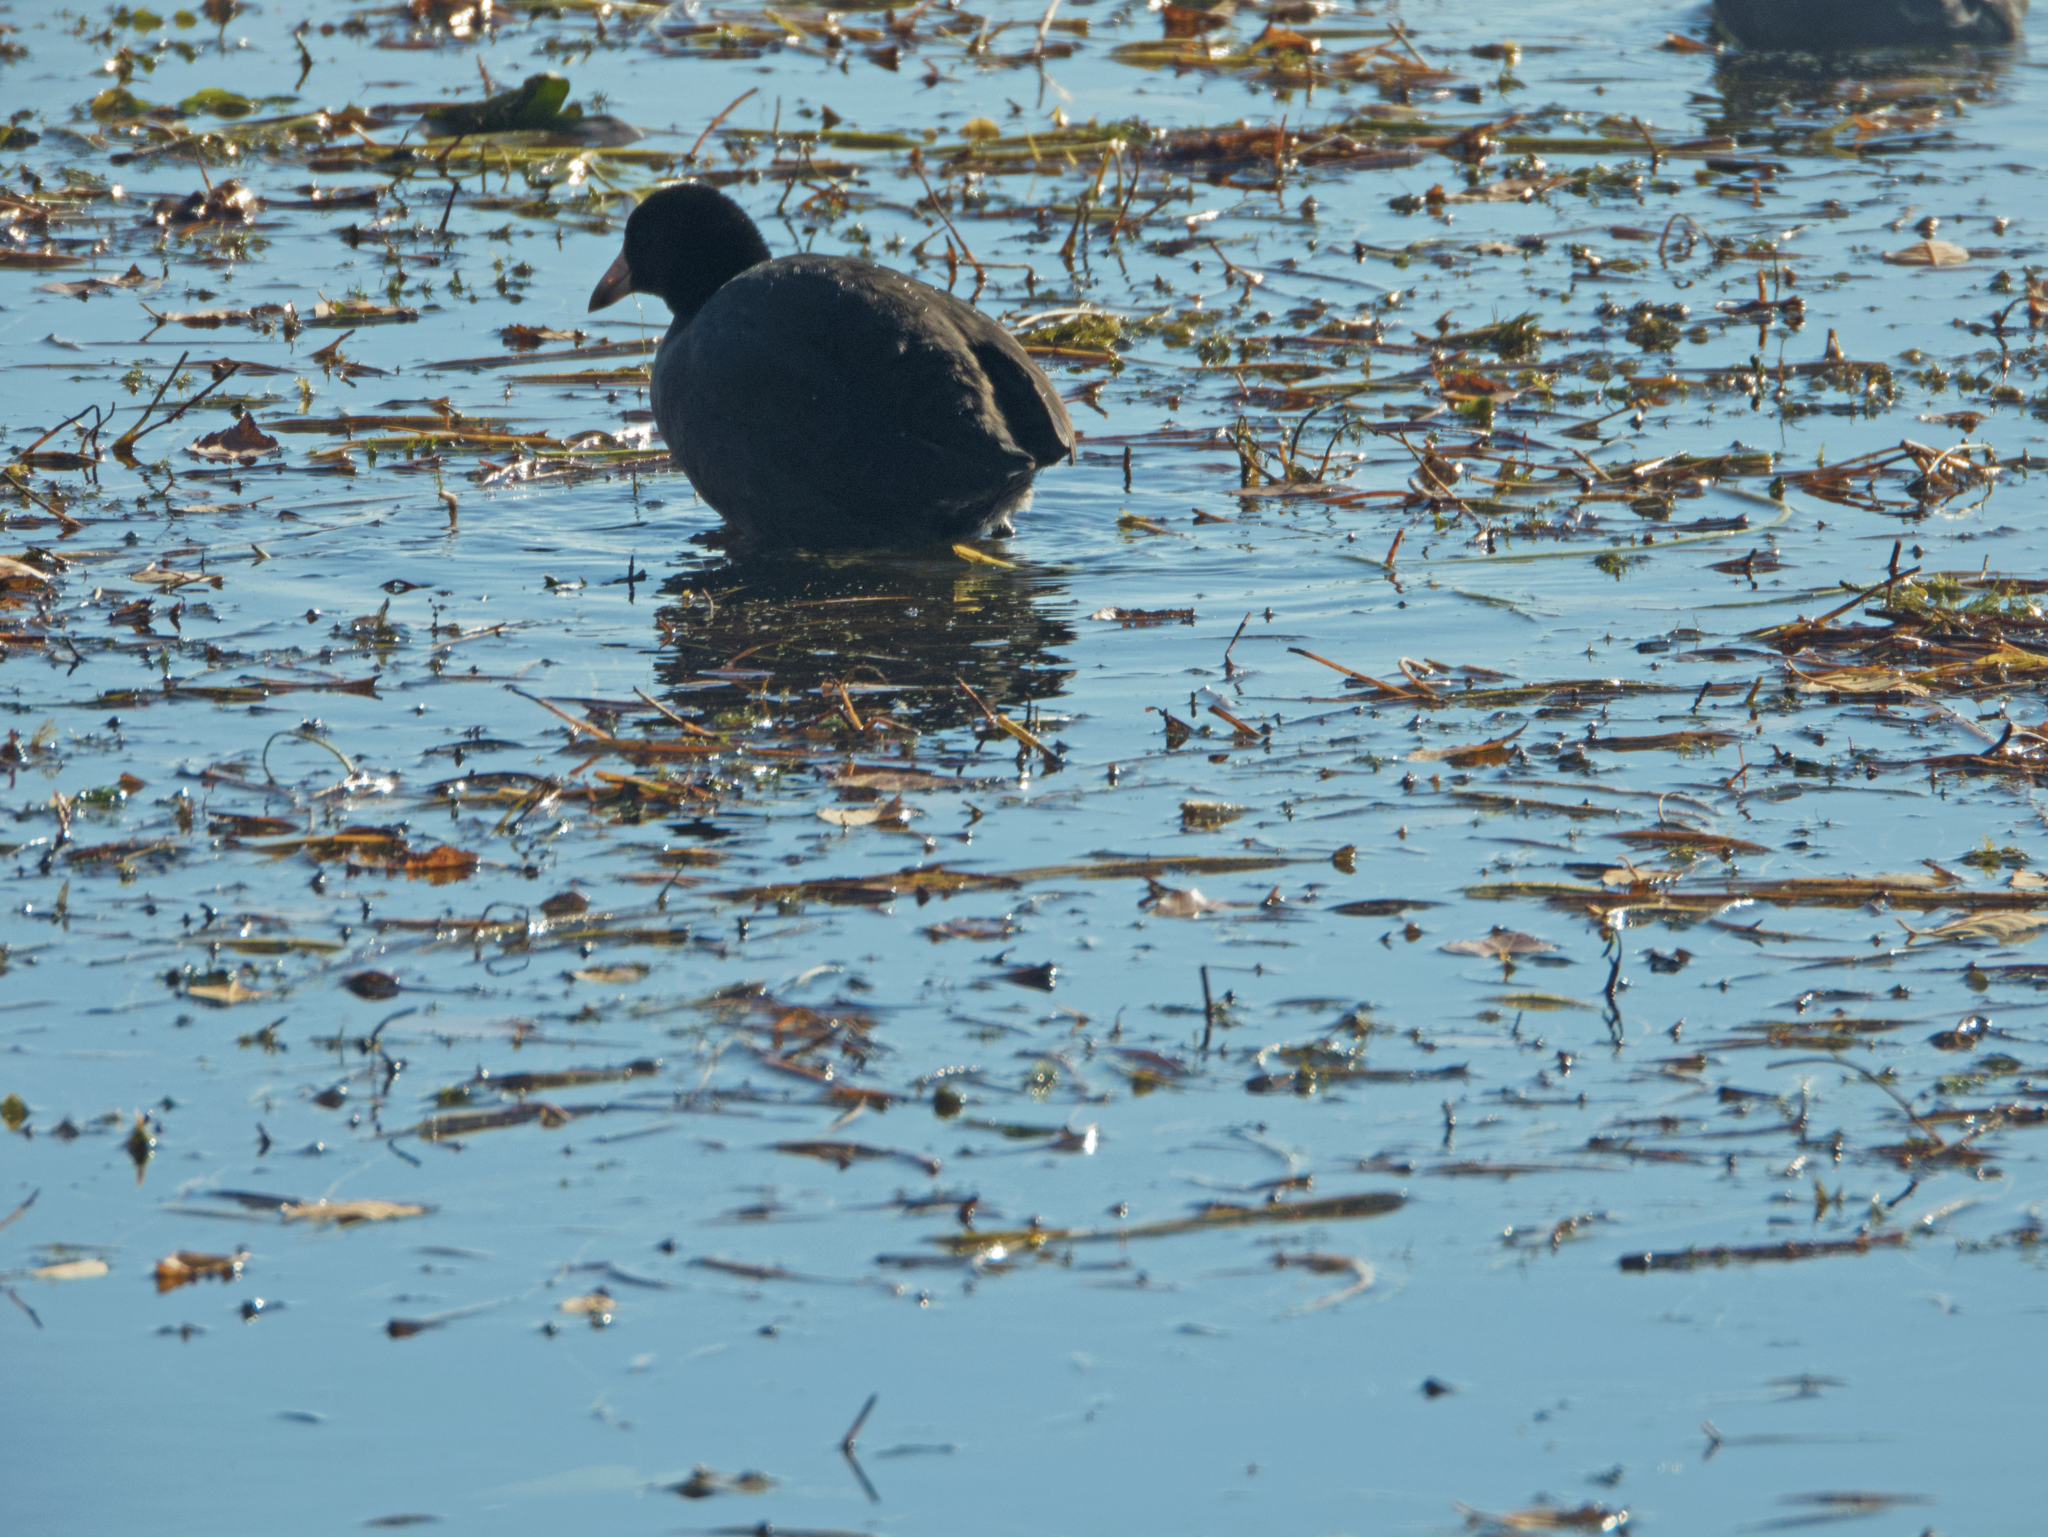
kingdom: Animalia
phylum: Chordata
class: Aves
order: Gruiformes
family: Rallidae
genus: Fulica
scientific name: Fulica americana
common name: American coot
